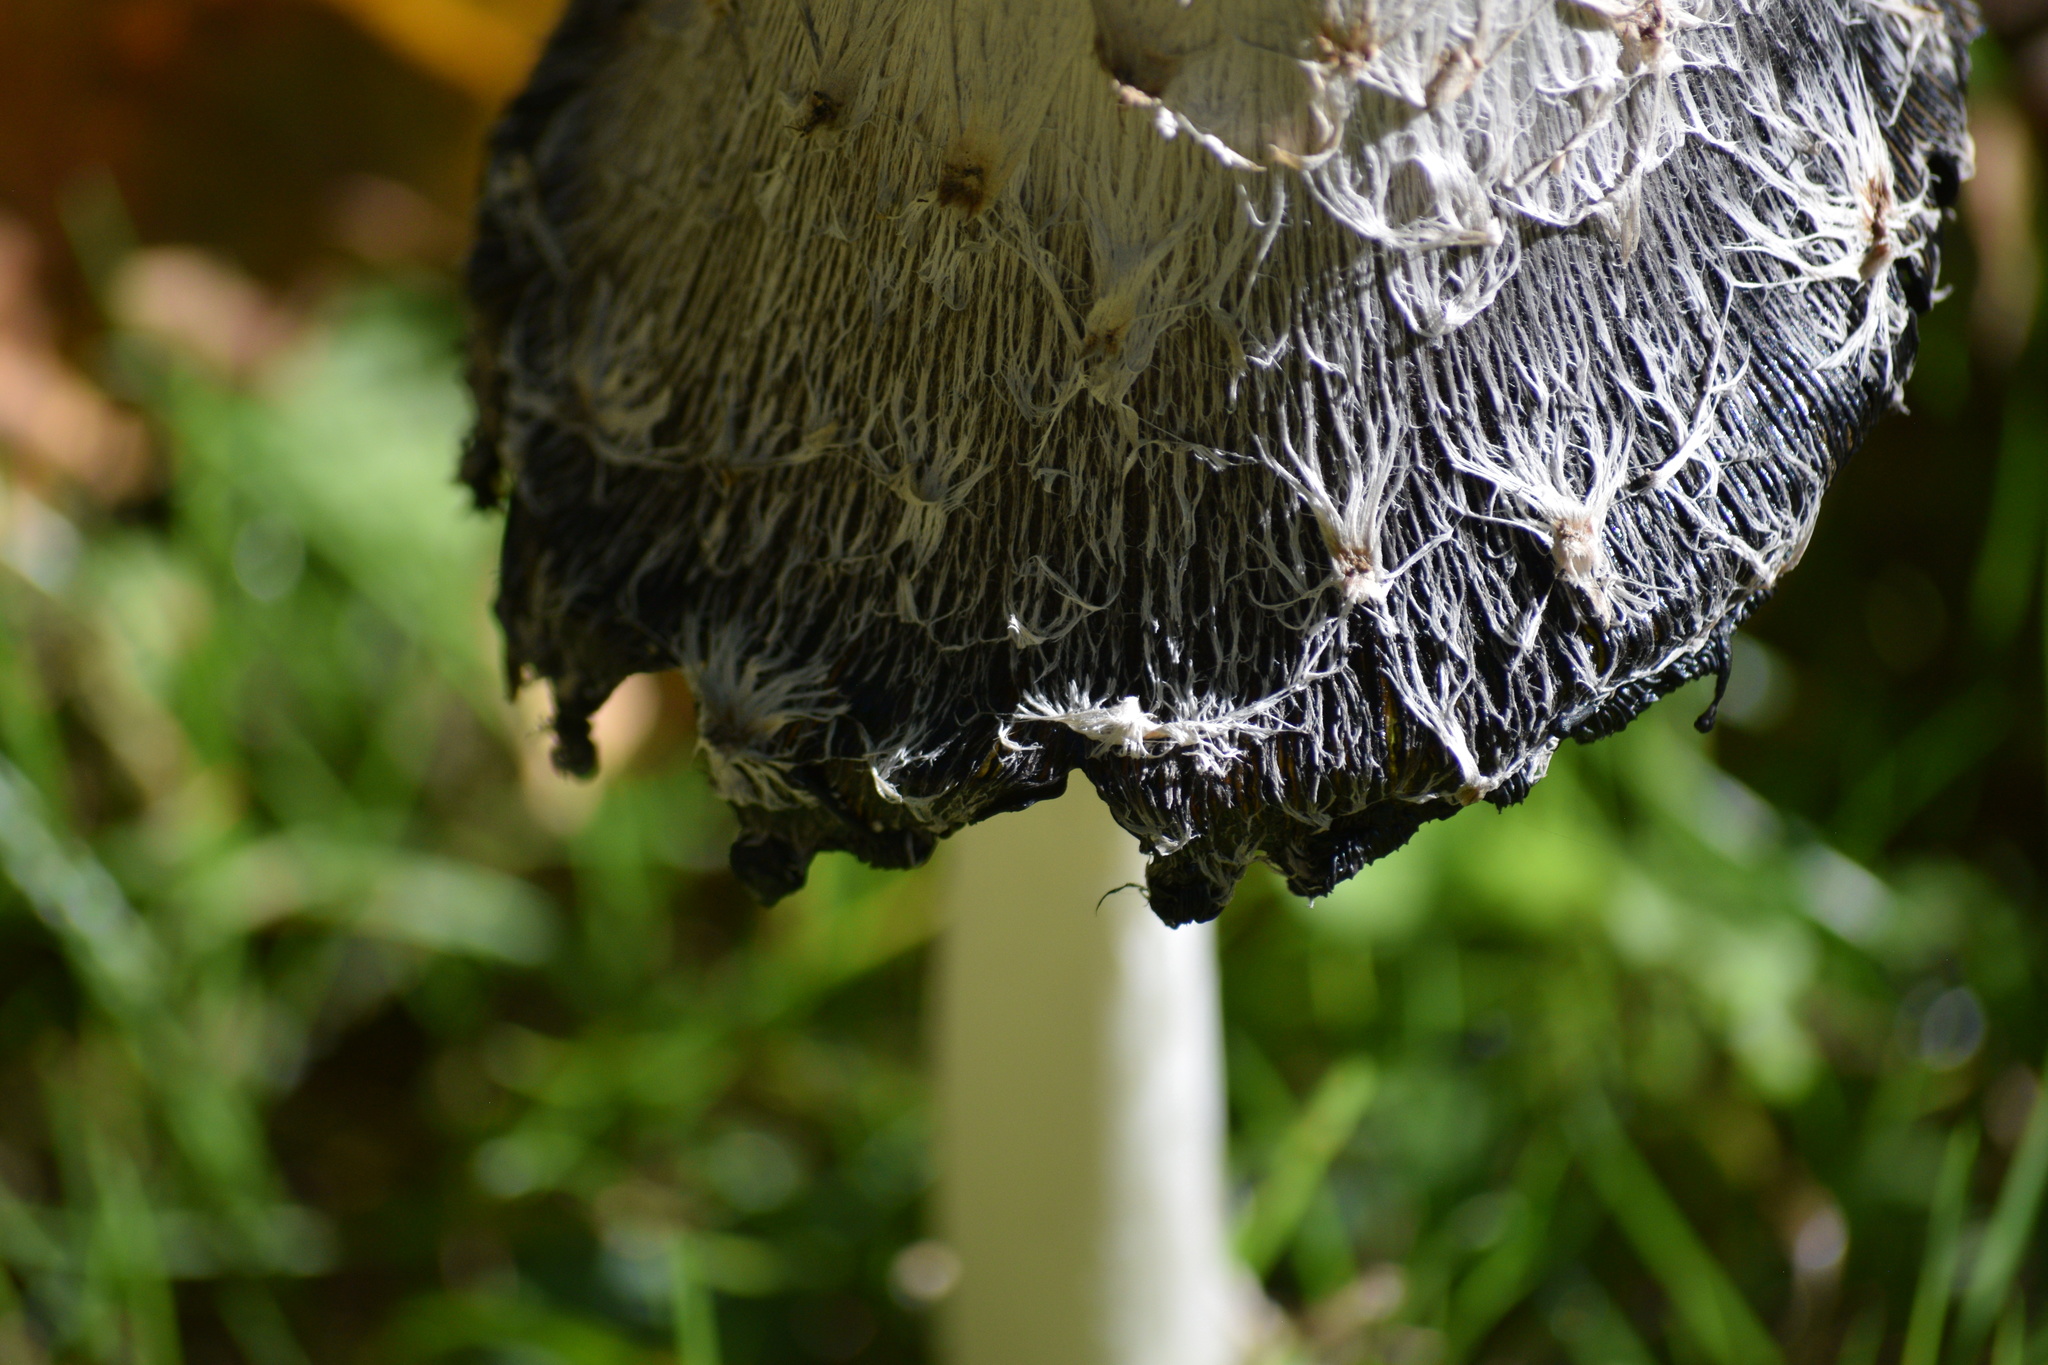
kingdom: Fungi
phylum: Basidiomycota
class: Agaricomycetes
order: Agaricales
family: Agaricaceae
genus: Coprinus
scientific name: Coprinus comatus
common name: Lawyer's wig
